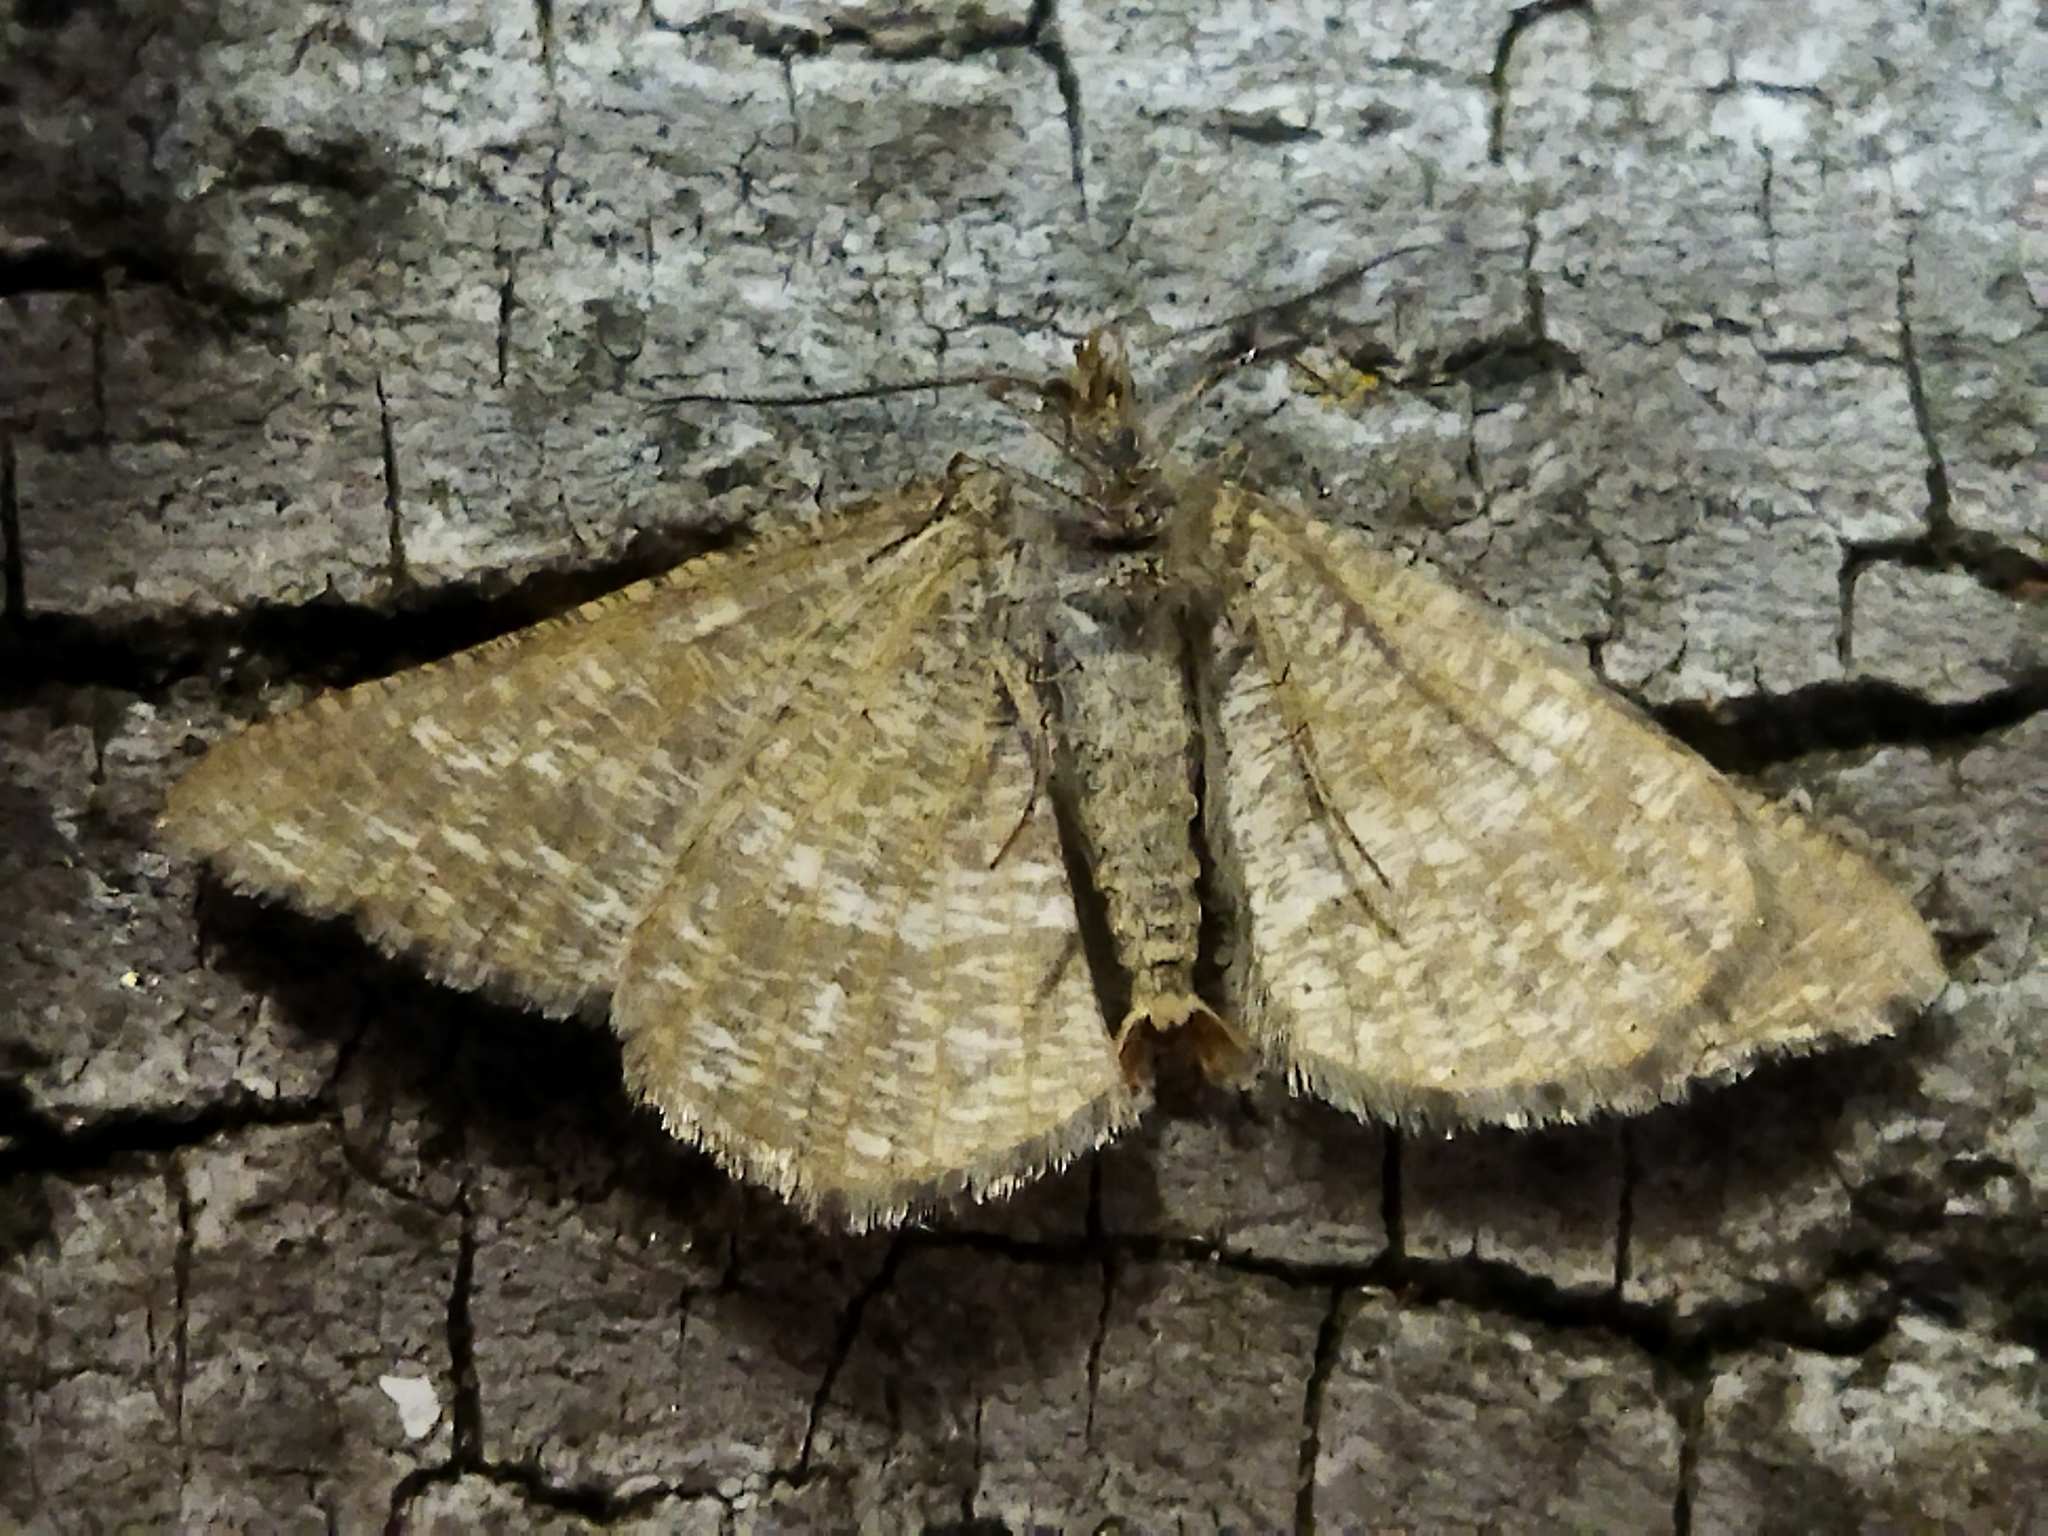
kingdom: Animalia
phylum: Arthropoda
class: Insecta
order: Lepidoptera
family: Geometridae
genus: Tephrina
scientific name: Tephrina murinaria
